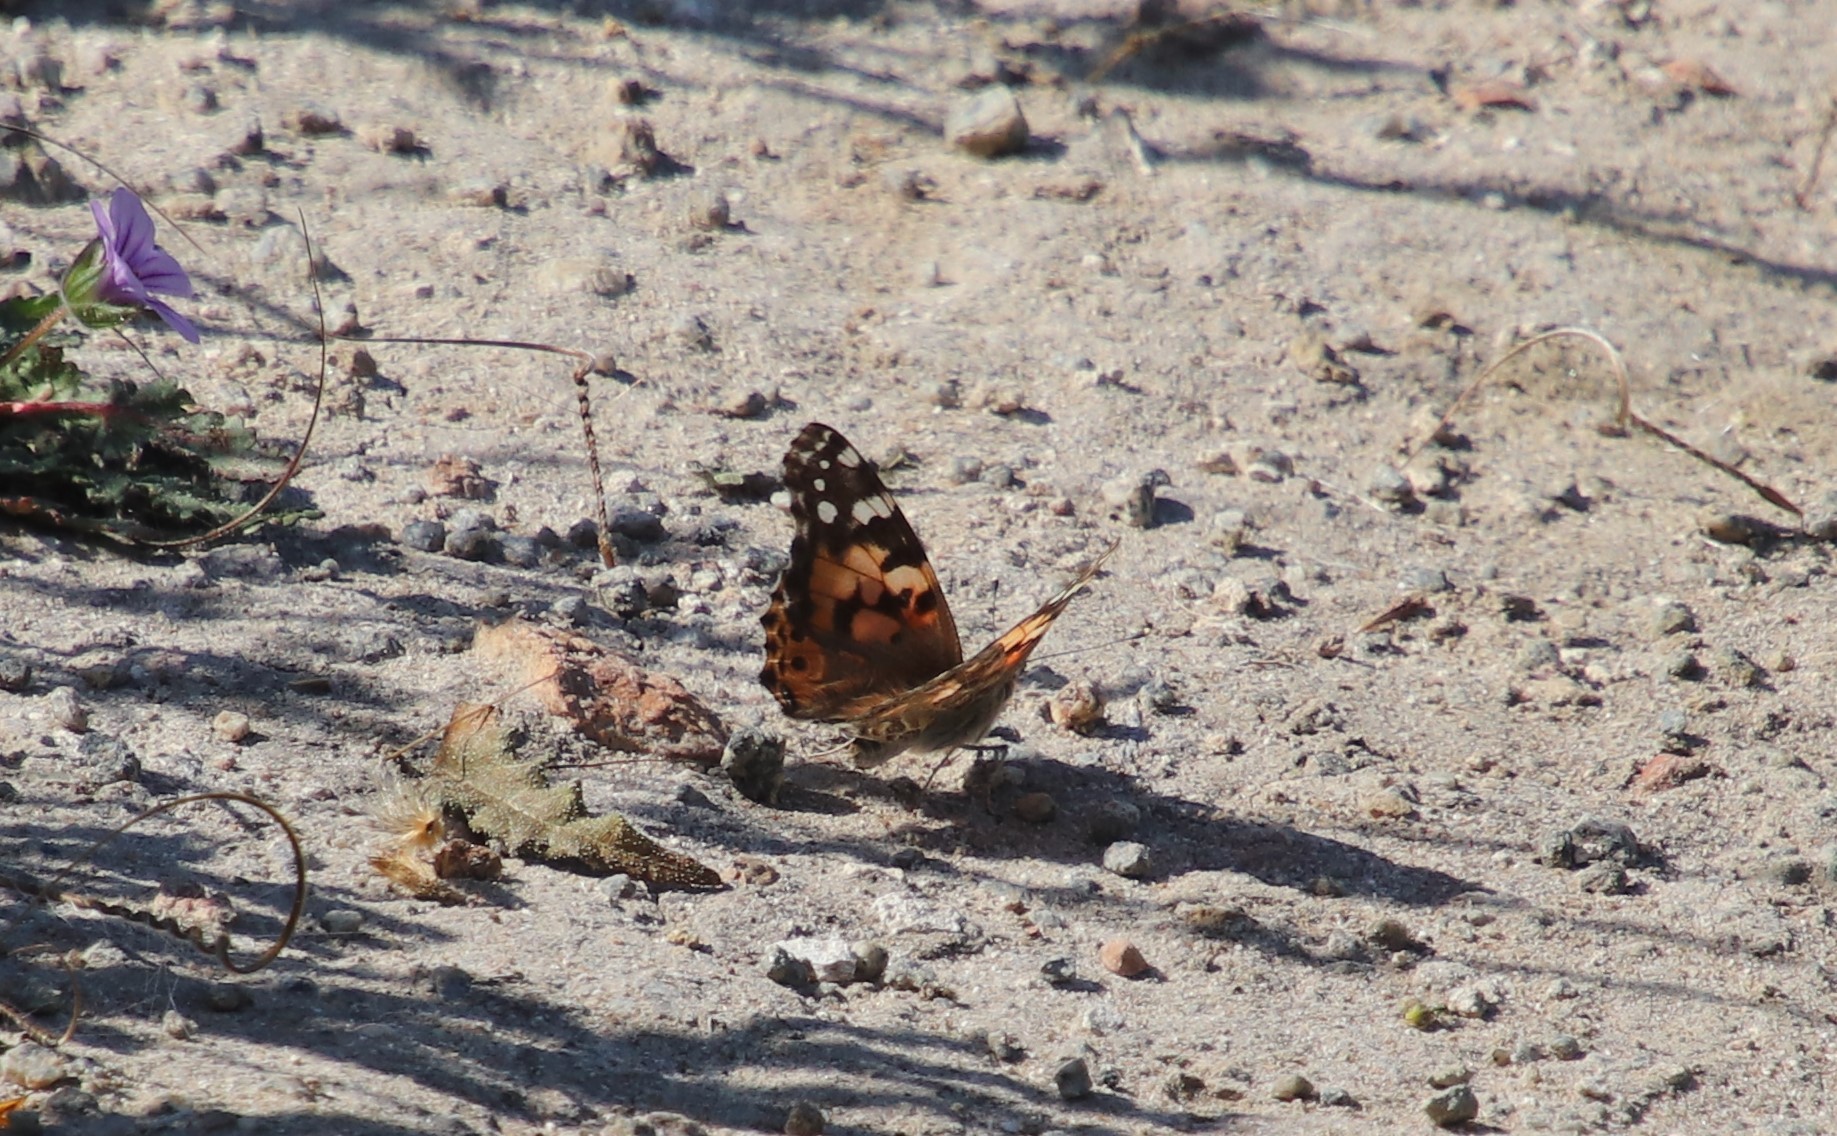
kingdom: Animalia
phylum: Arthropoda
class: Insecta
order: Lepidoptera
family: Nymphalidae
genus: Vanessa
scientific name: Vanessa cardui
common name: Painted lady
